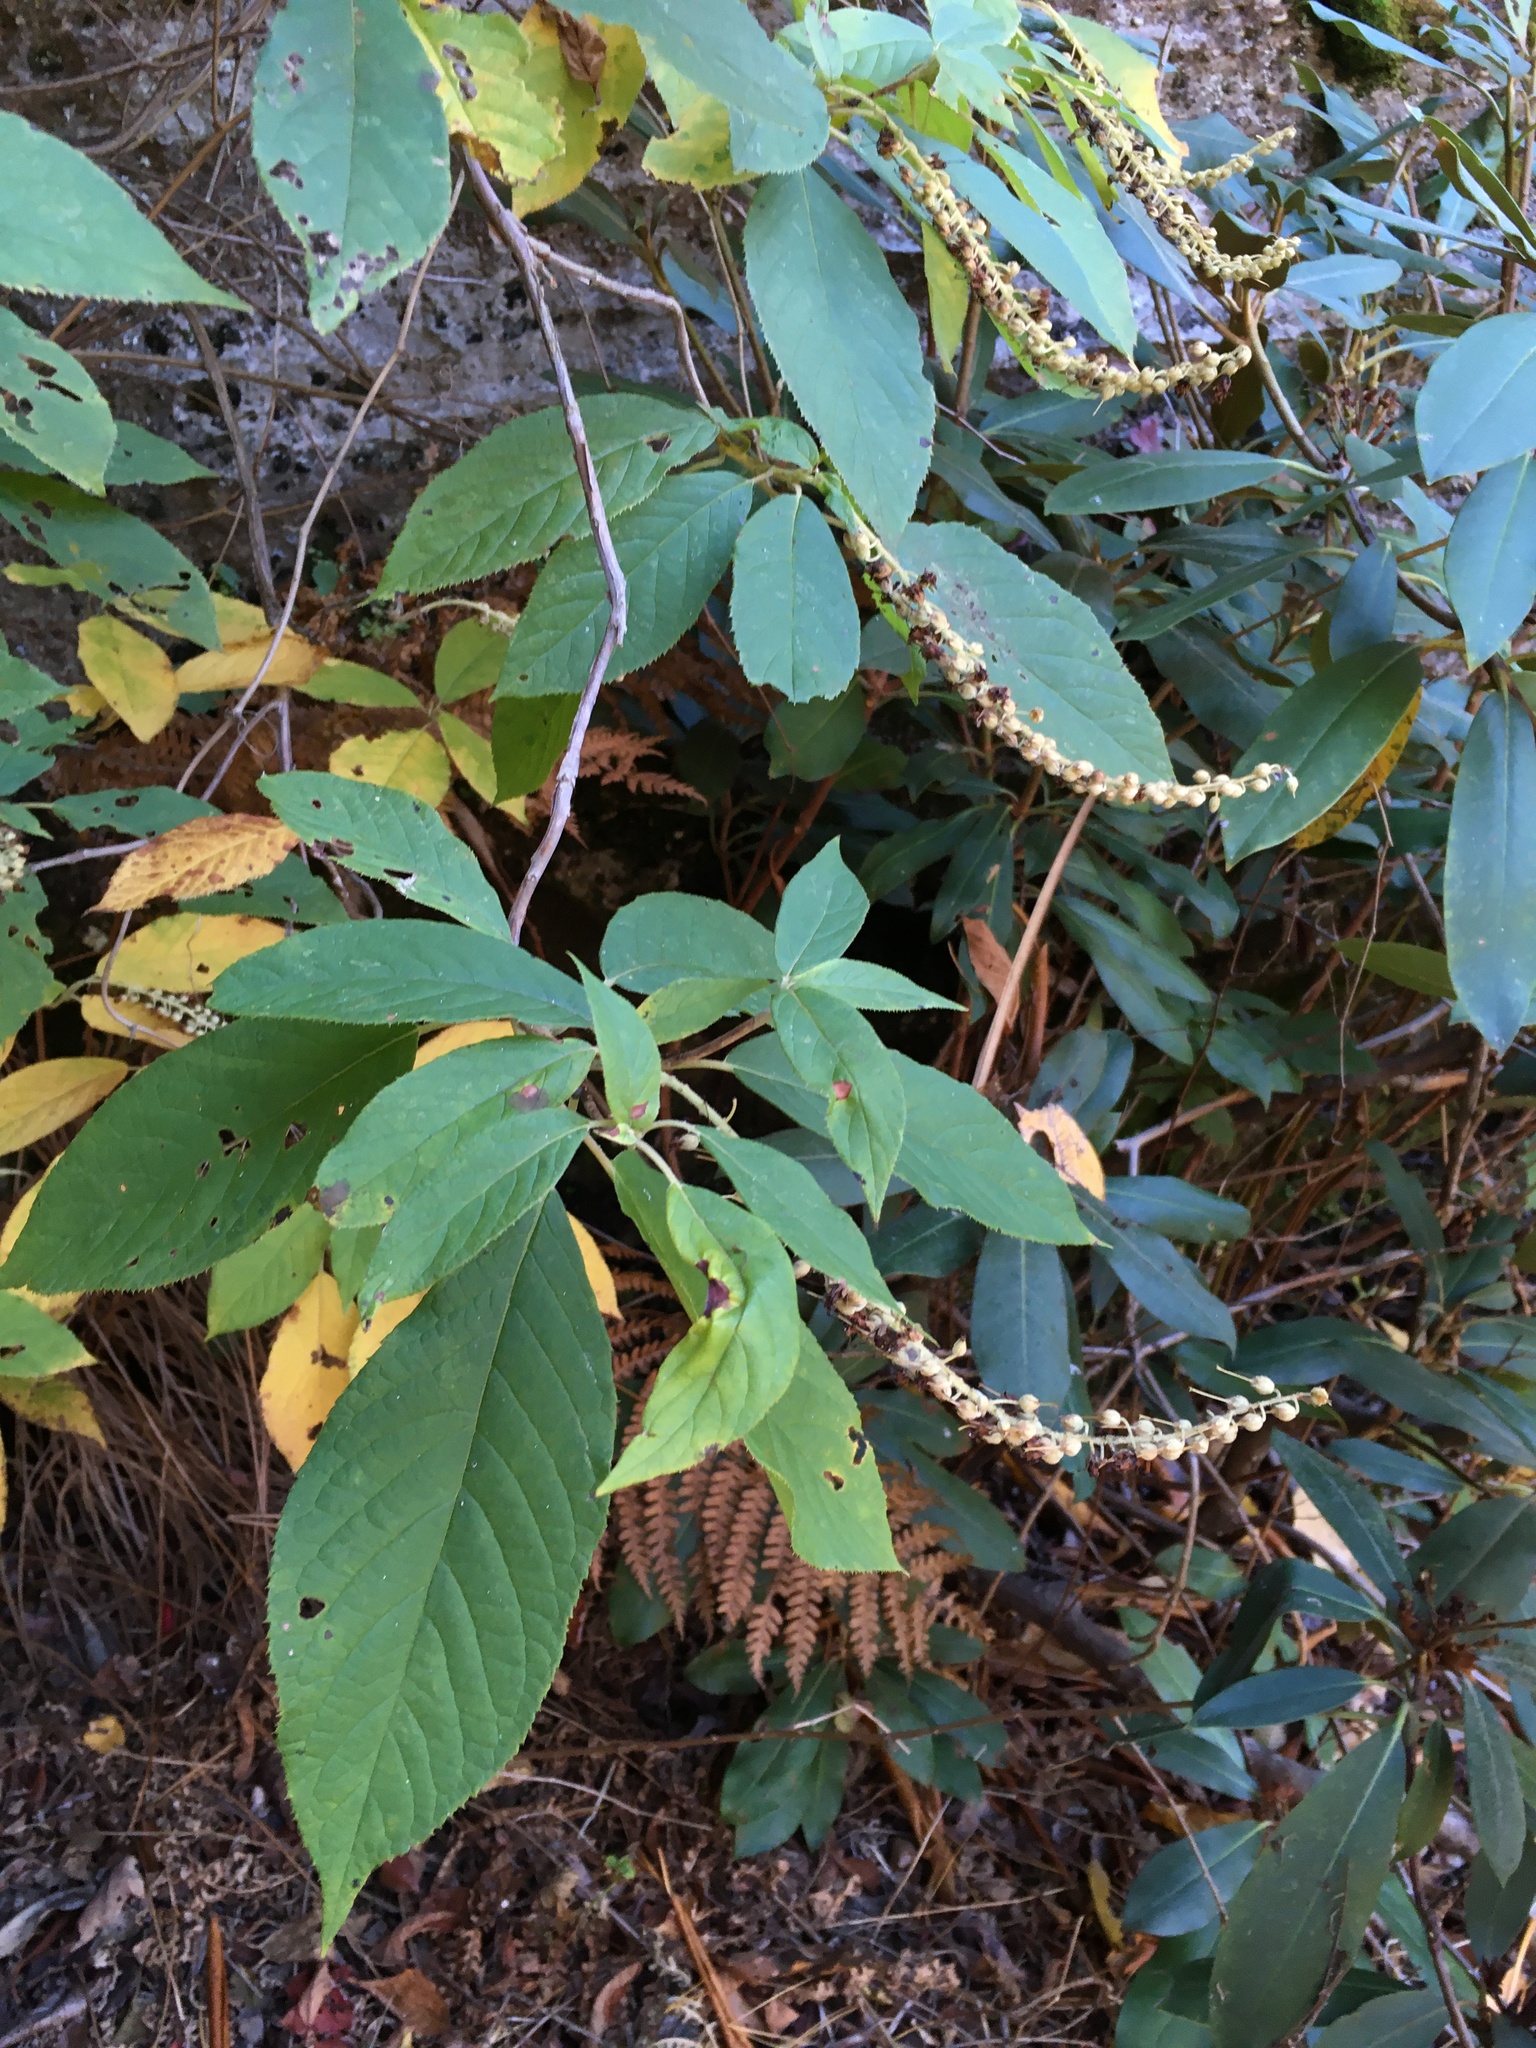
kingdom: Plantae
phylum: Tracheophyta
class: Magnoliopsida
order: Ericales
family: Clethraceae
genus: Clethra
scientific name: Clethra acuminata
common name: Mountain sweet pepperbush
